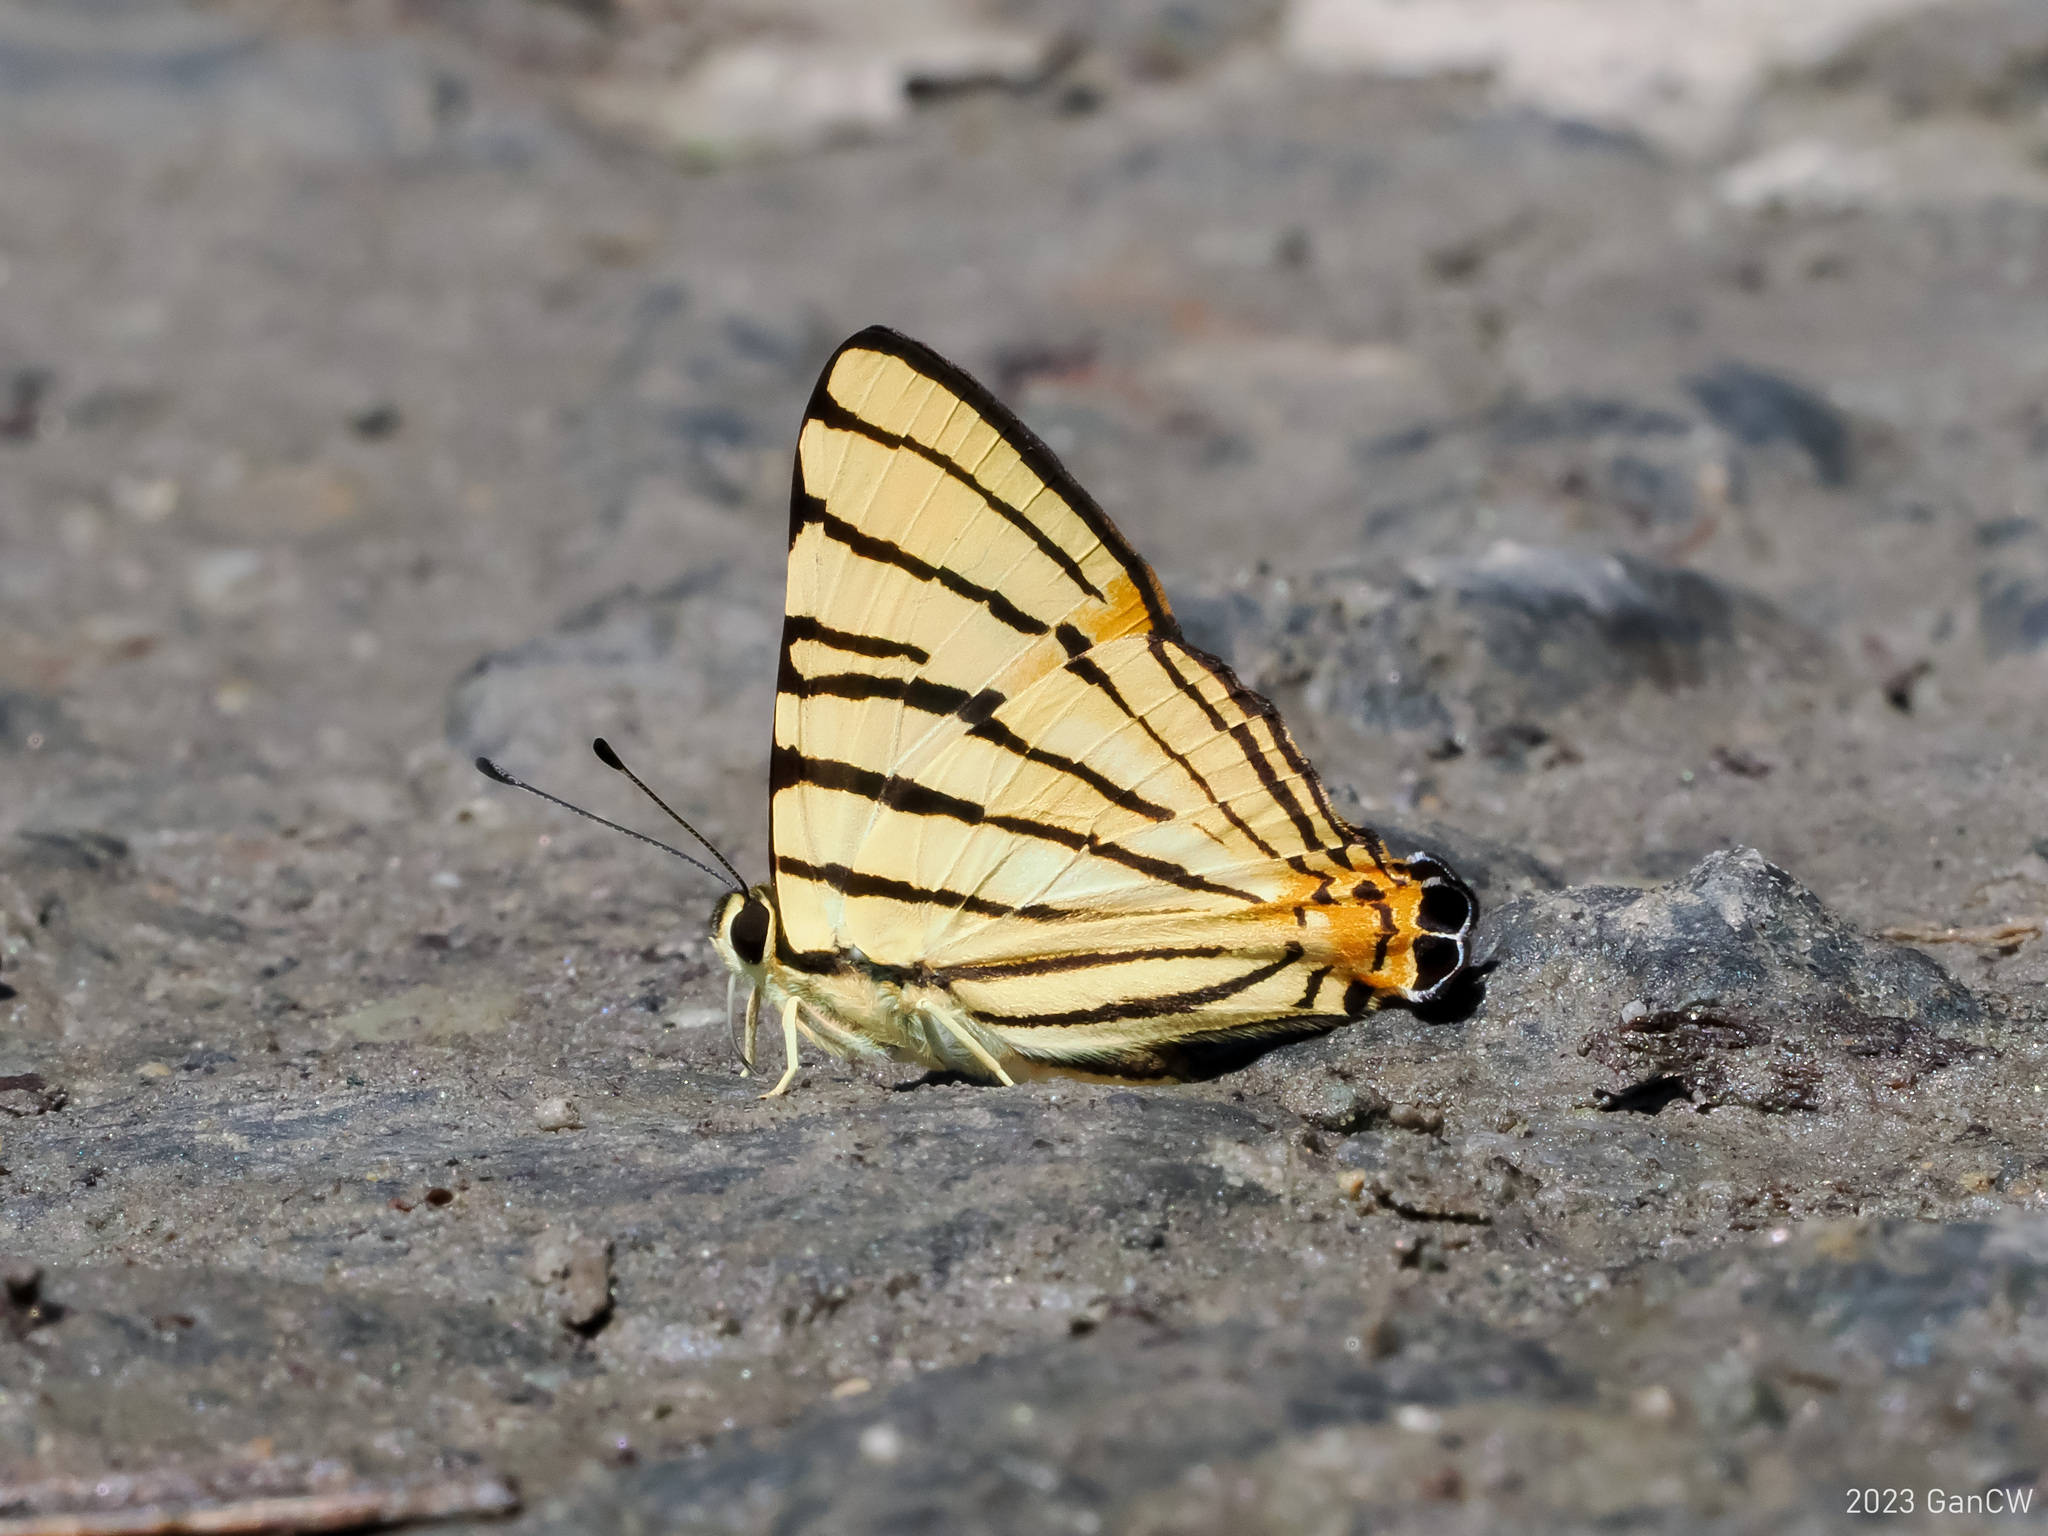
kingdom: Animalia
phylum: Arthropoda
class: Insecta
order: Lepidoptera
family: Lycaenidae
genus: Dodona
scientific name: Dodona adonira
